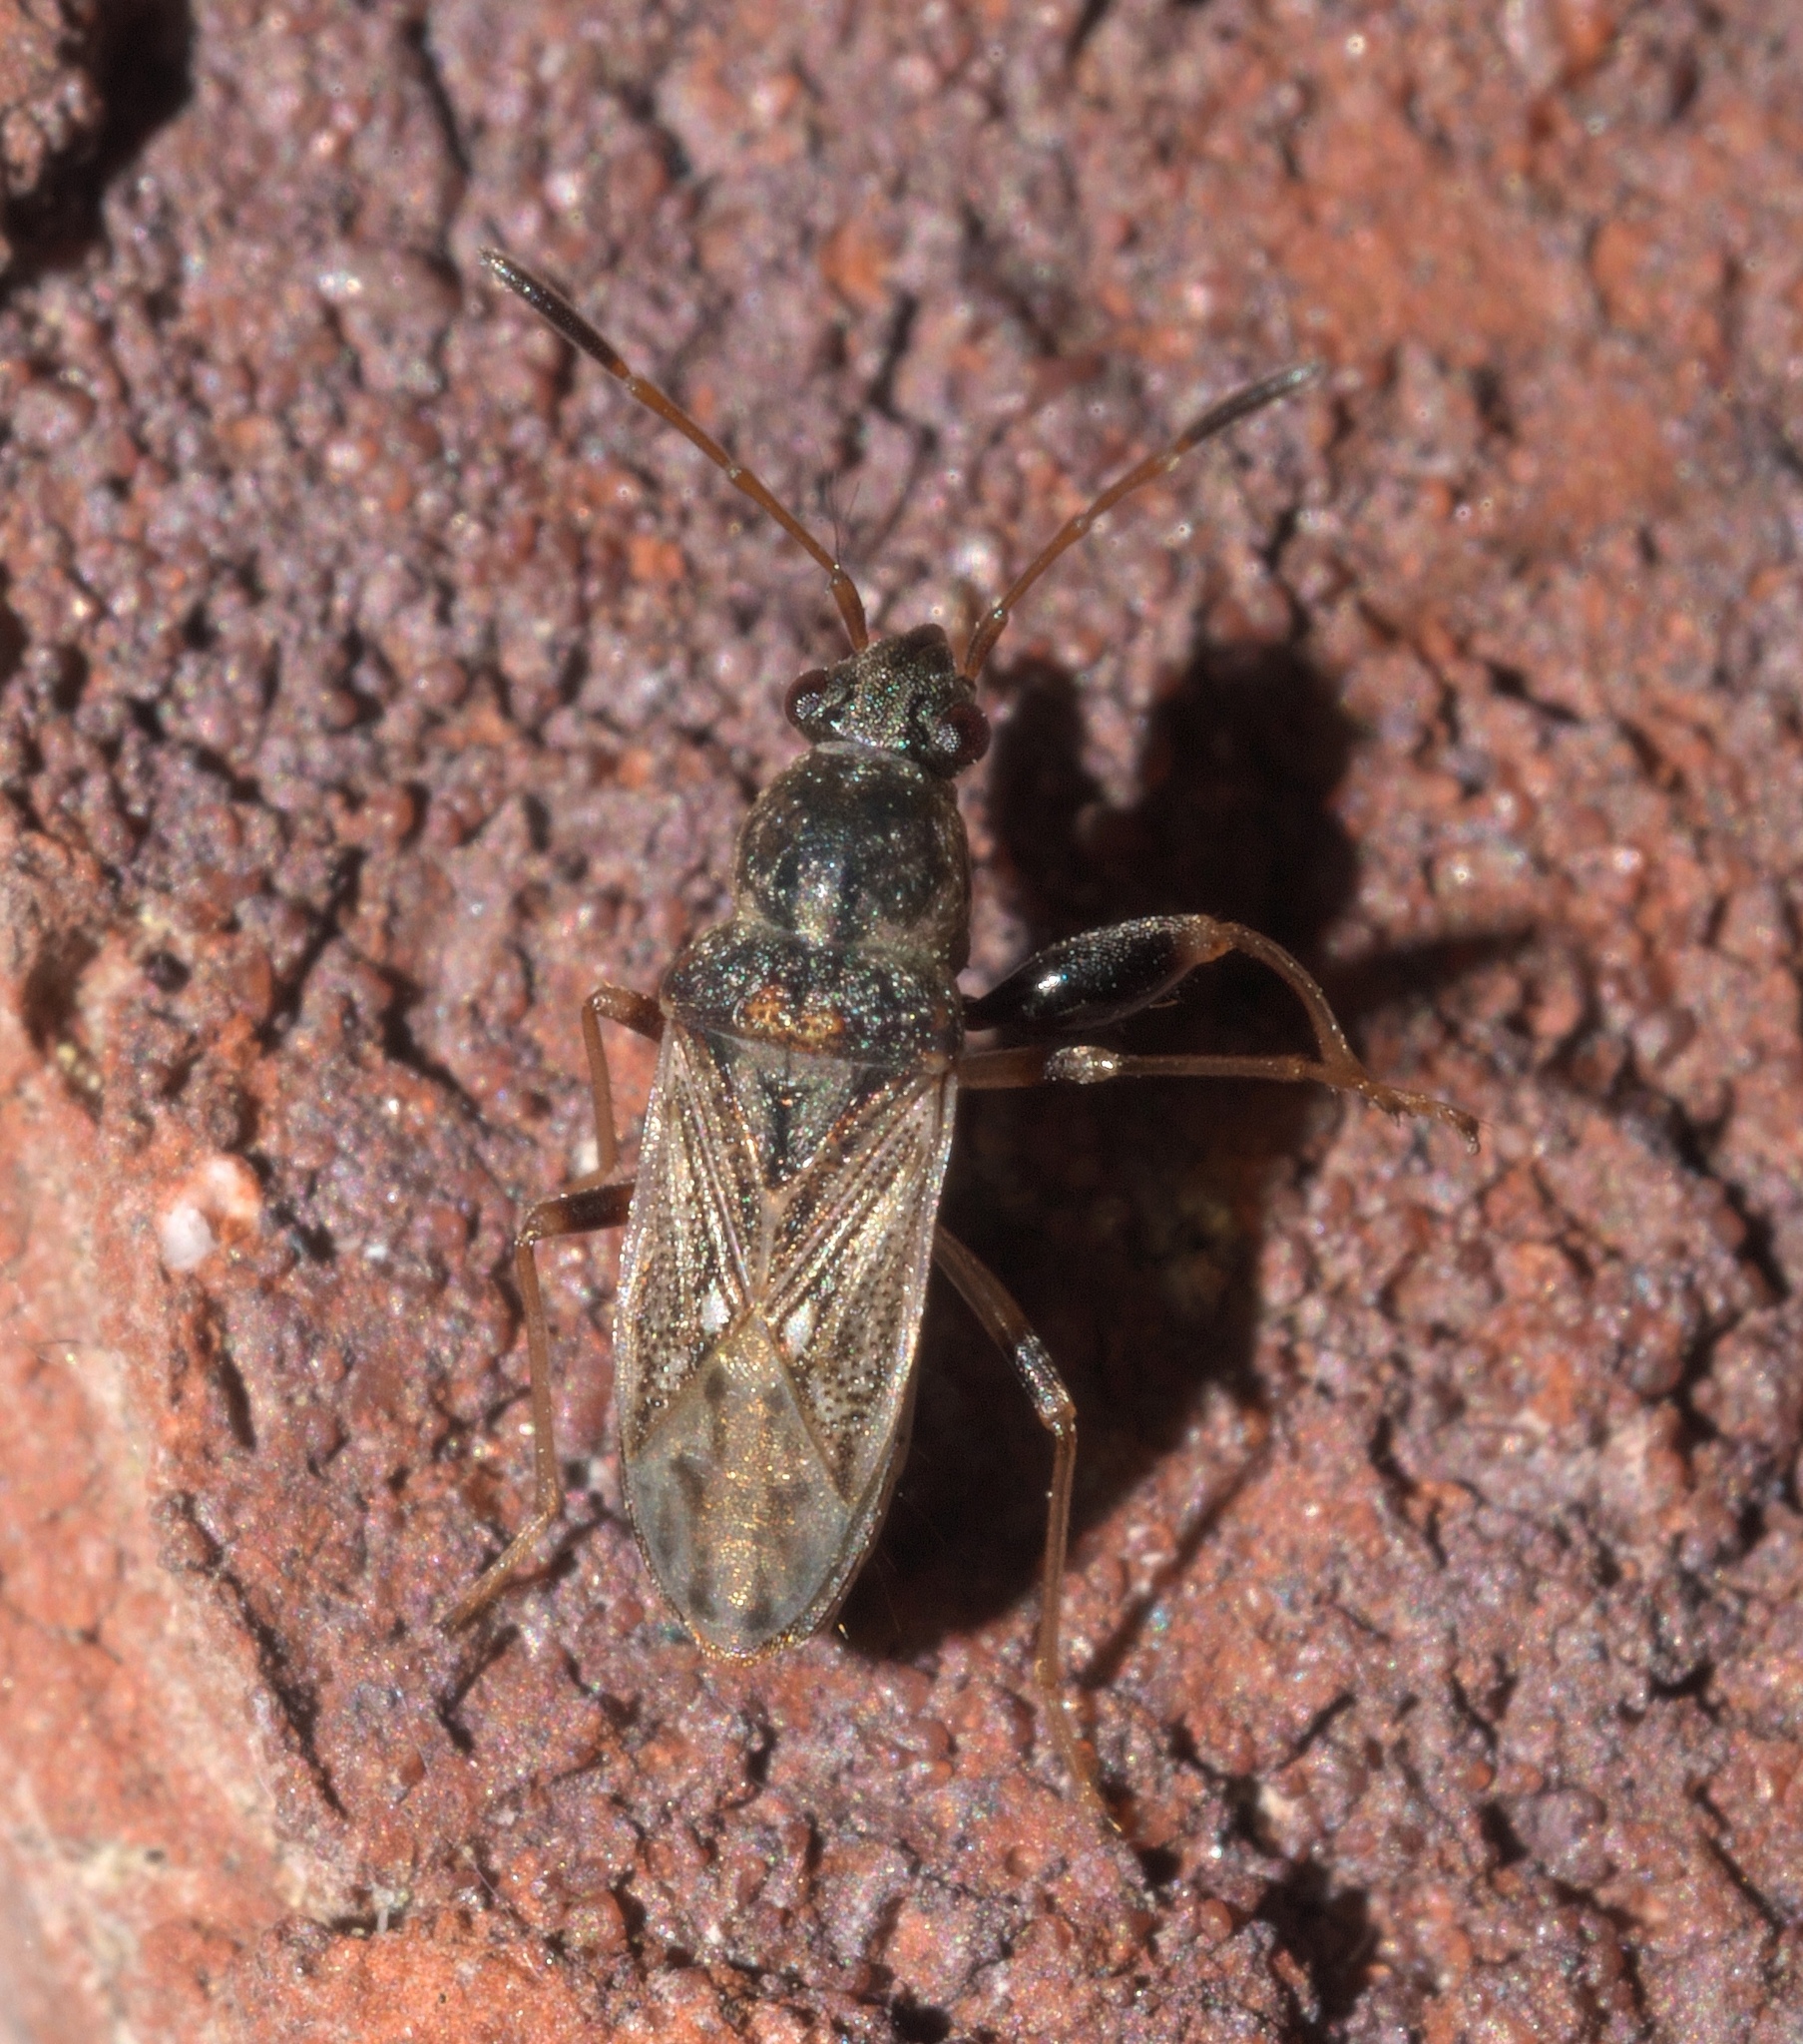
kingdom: Animalia
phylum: Arthropoda
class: Insecta
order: Hemiptera
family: Rhyparochromidae
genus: Pseudopachybrachius
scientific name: Pseudopachybrachius basalis
